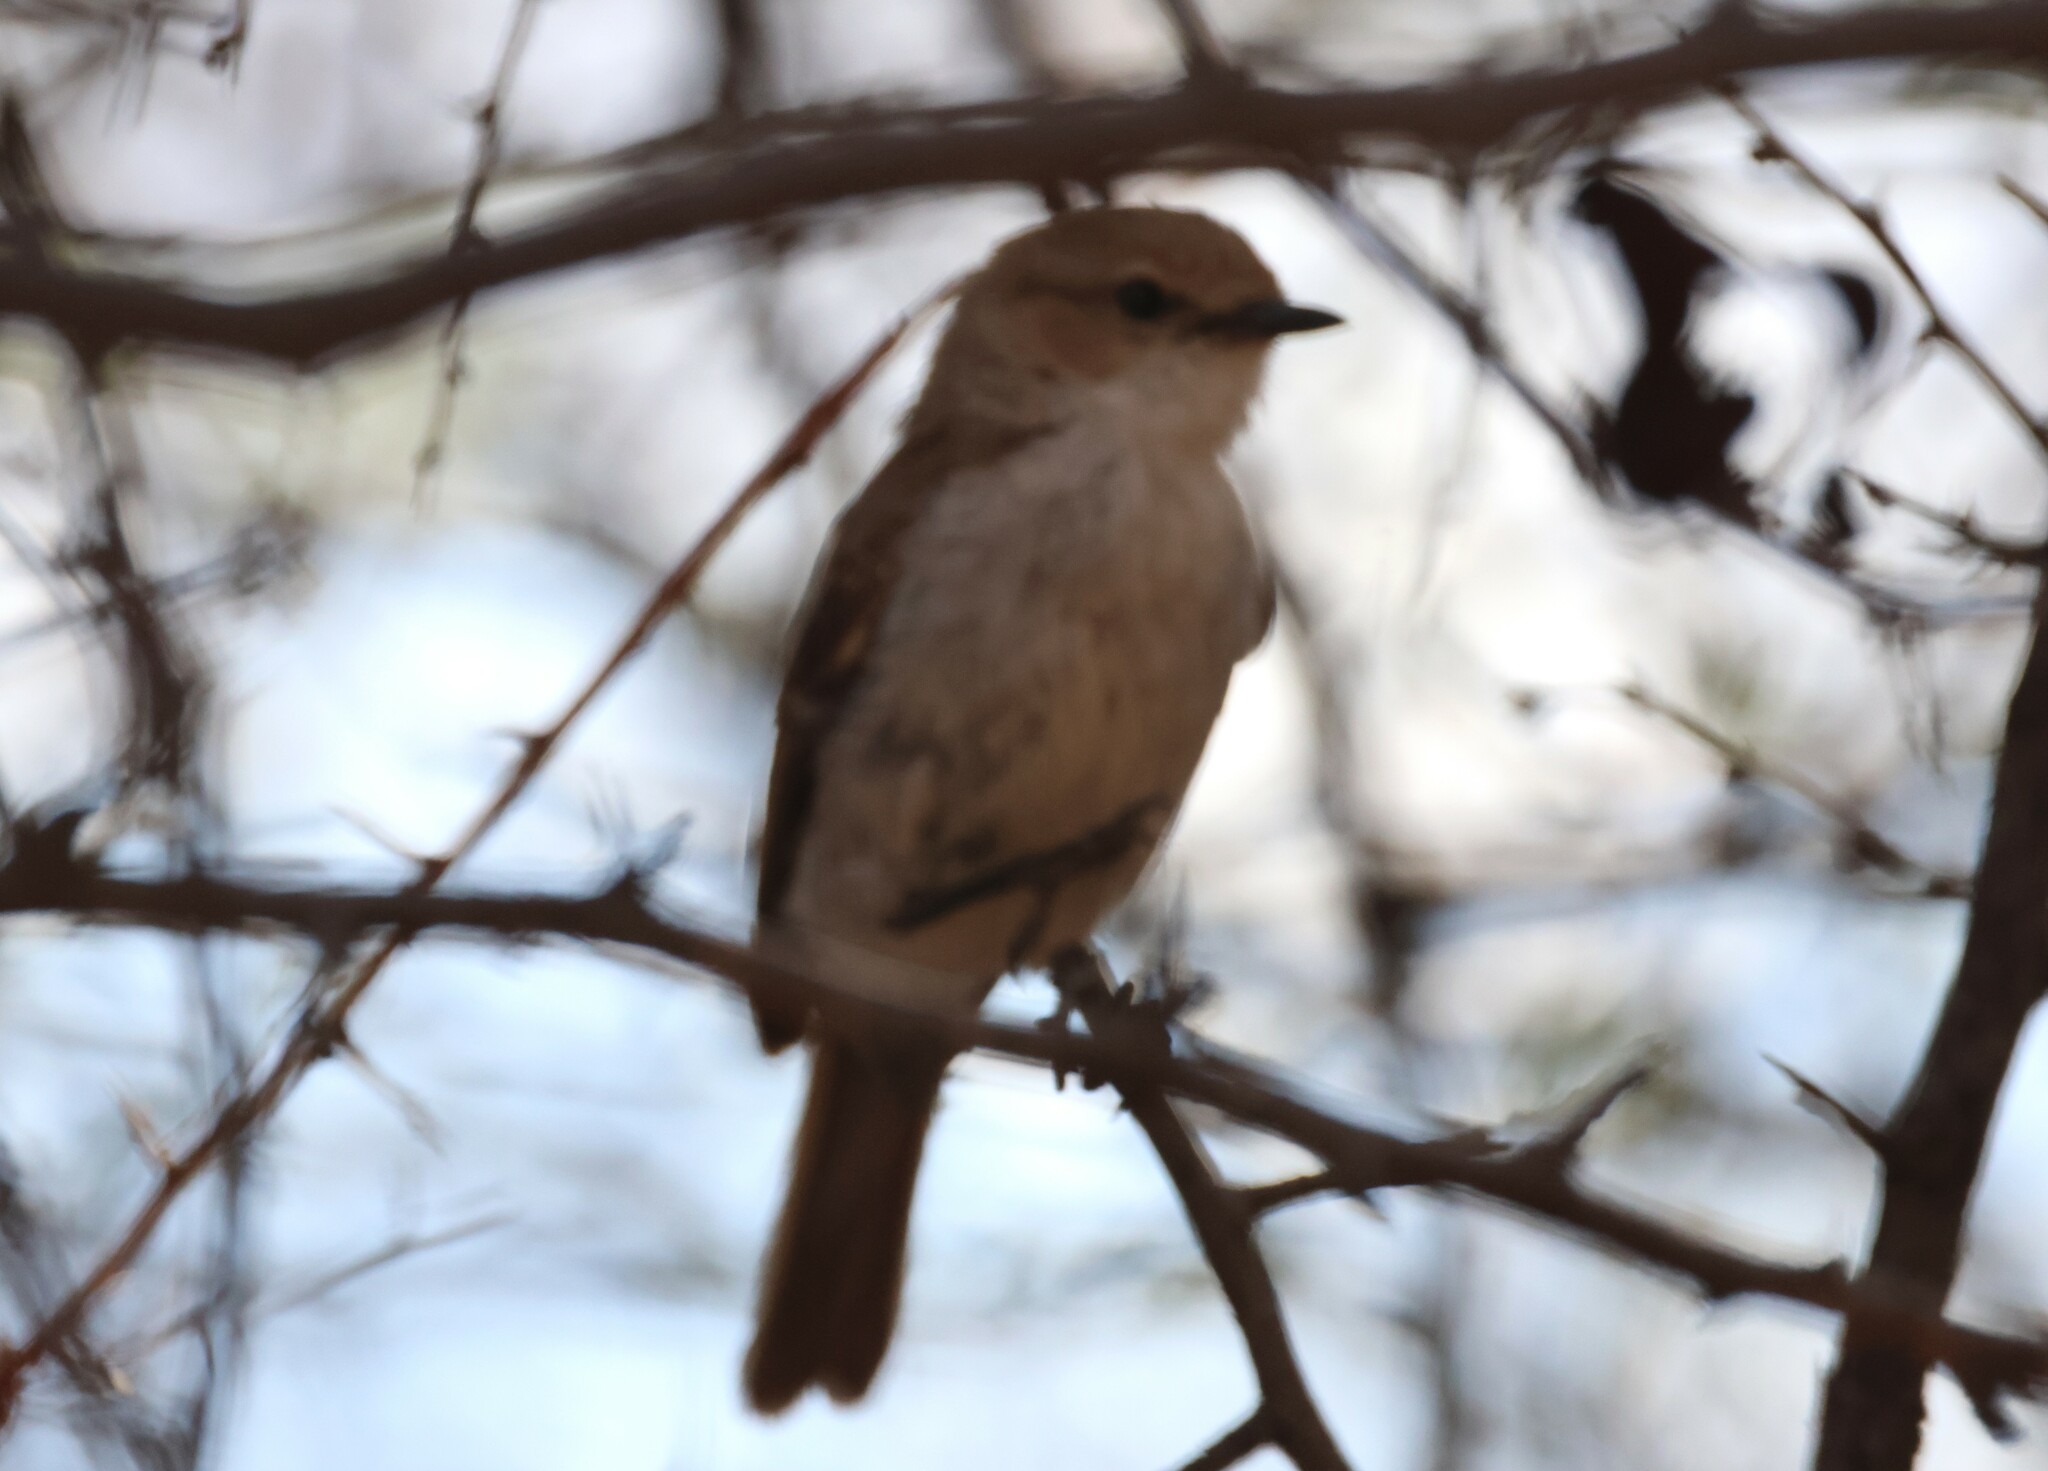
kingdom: Animalia
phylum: Chordata
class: Aves
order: Passeriformes
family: Muscicapidae
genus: Bradornis
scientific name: Bradornis mariquensis
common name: Marico flycatcher
